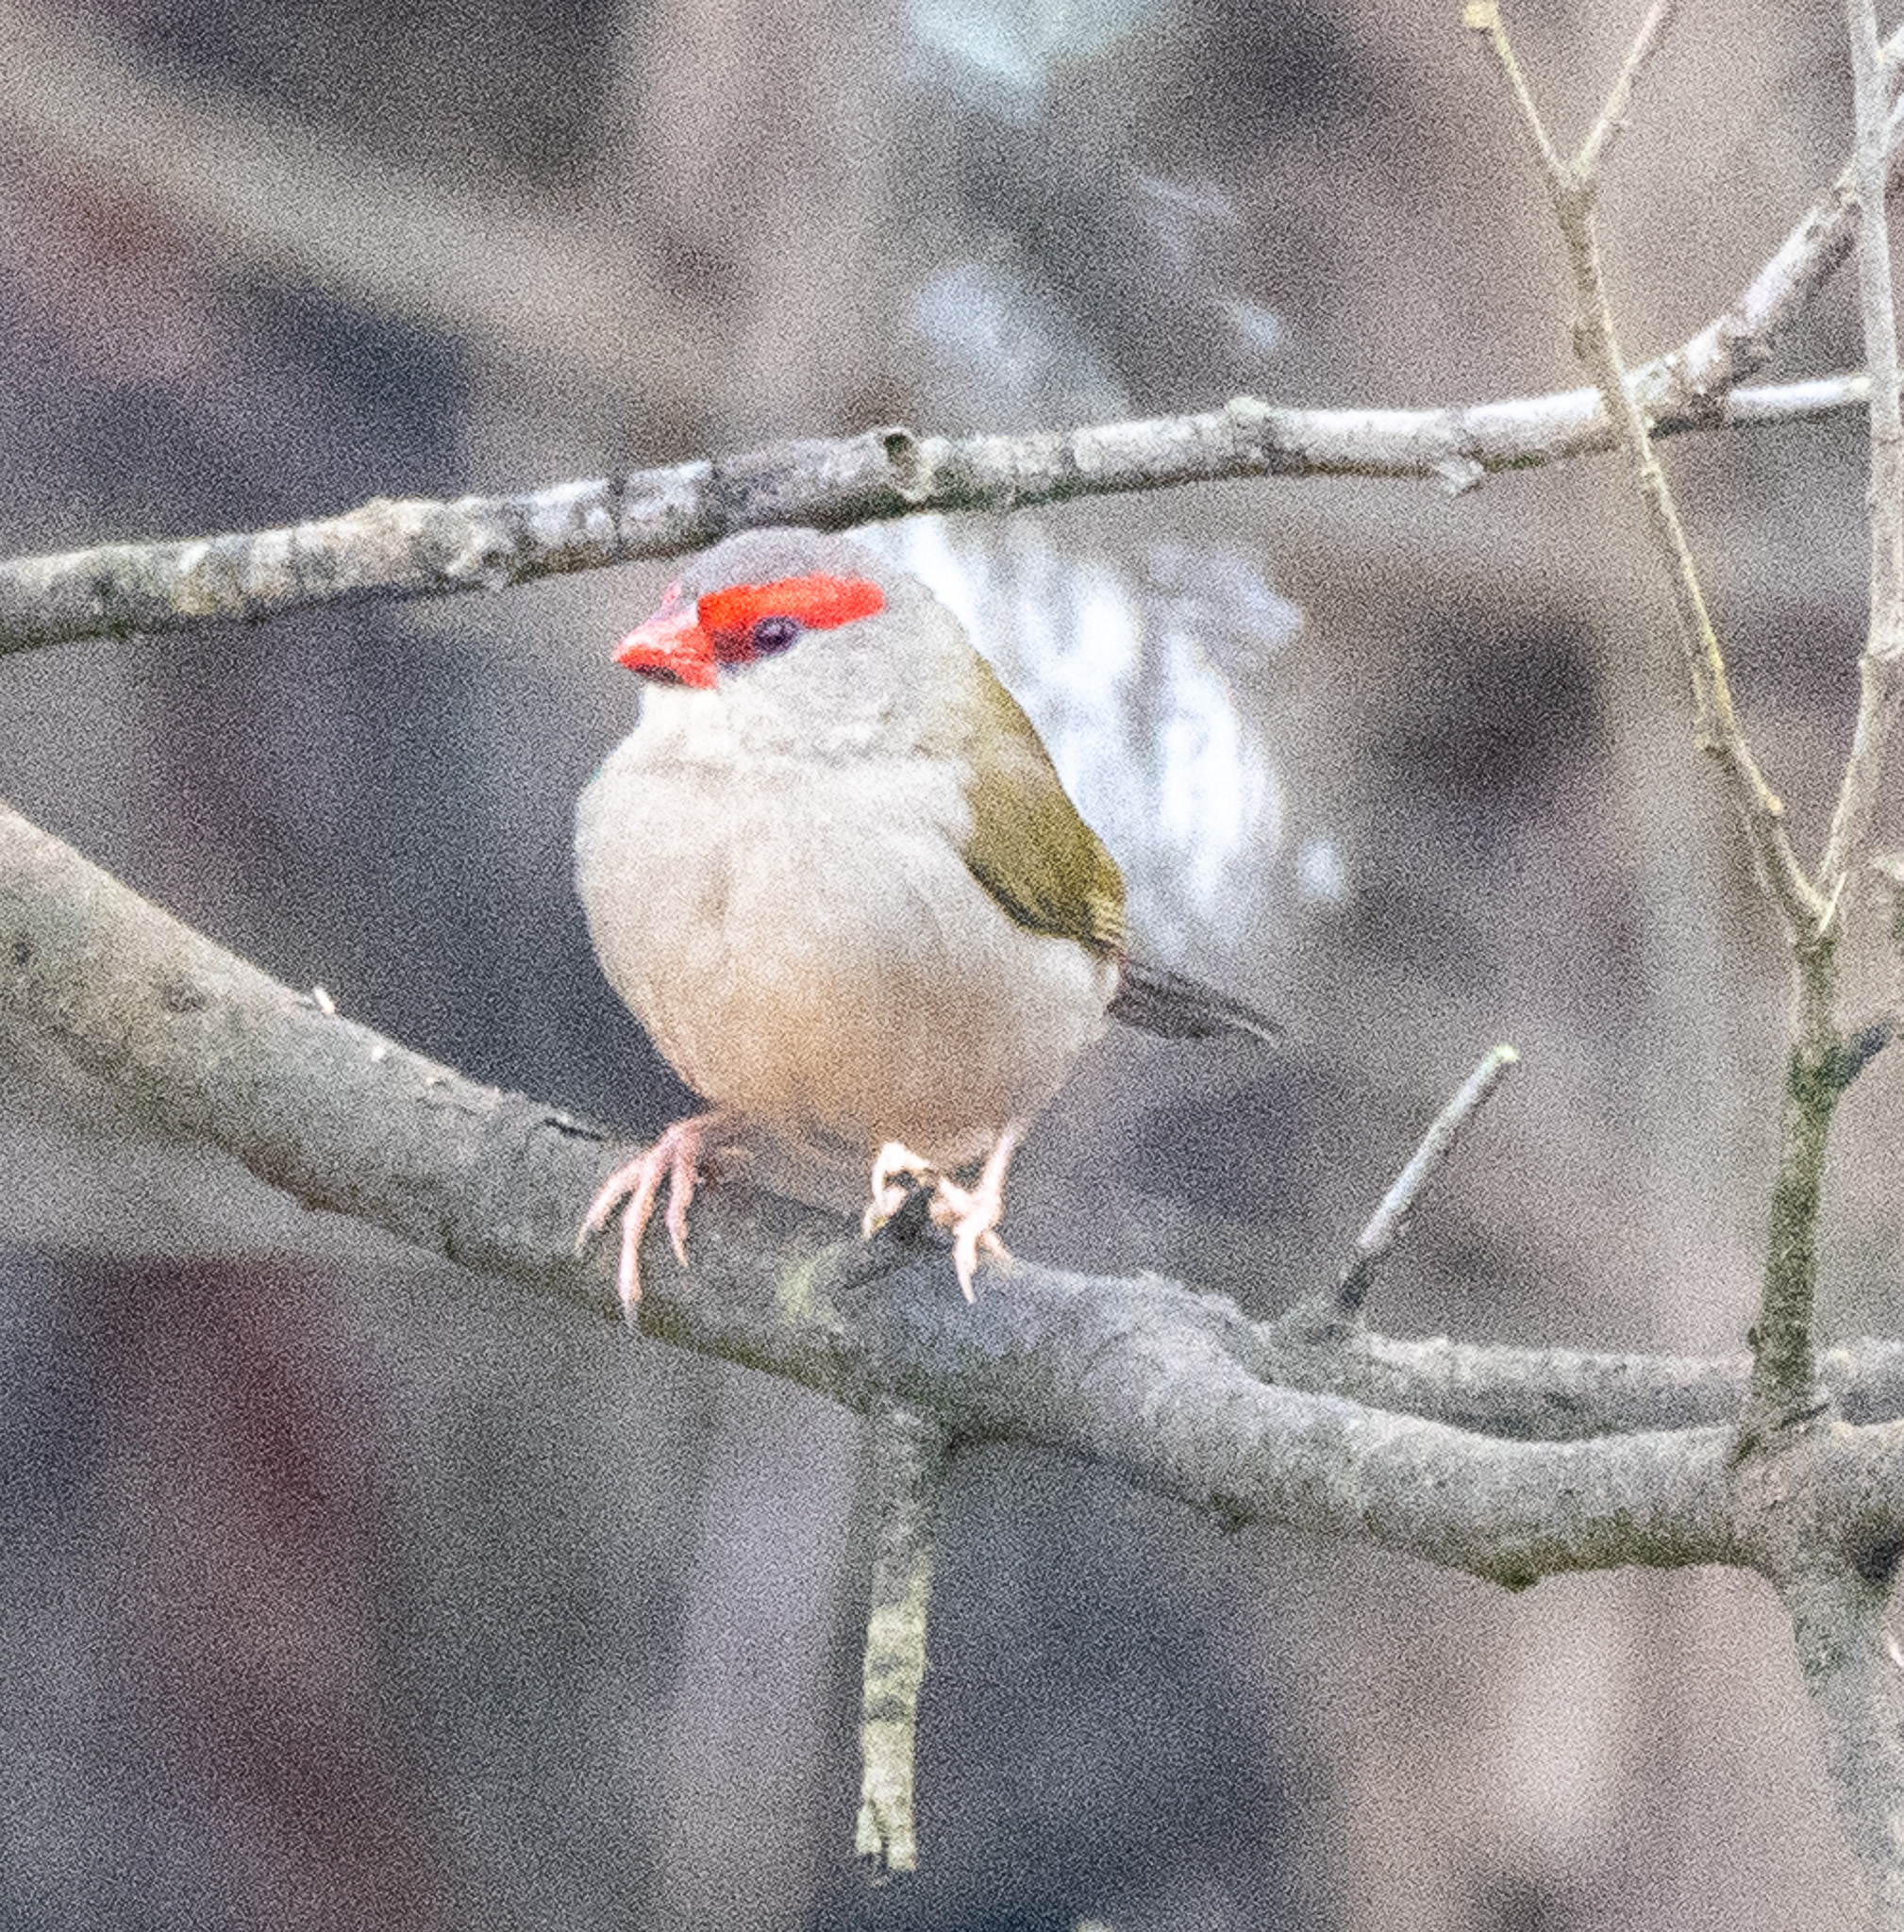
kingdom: Animalia
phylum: Chordata
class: Aves
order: Passeriformes
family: Estrildidae
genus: Neochmia
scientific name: Neochmia temporalis
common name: Red-browed finch
